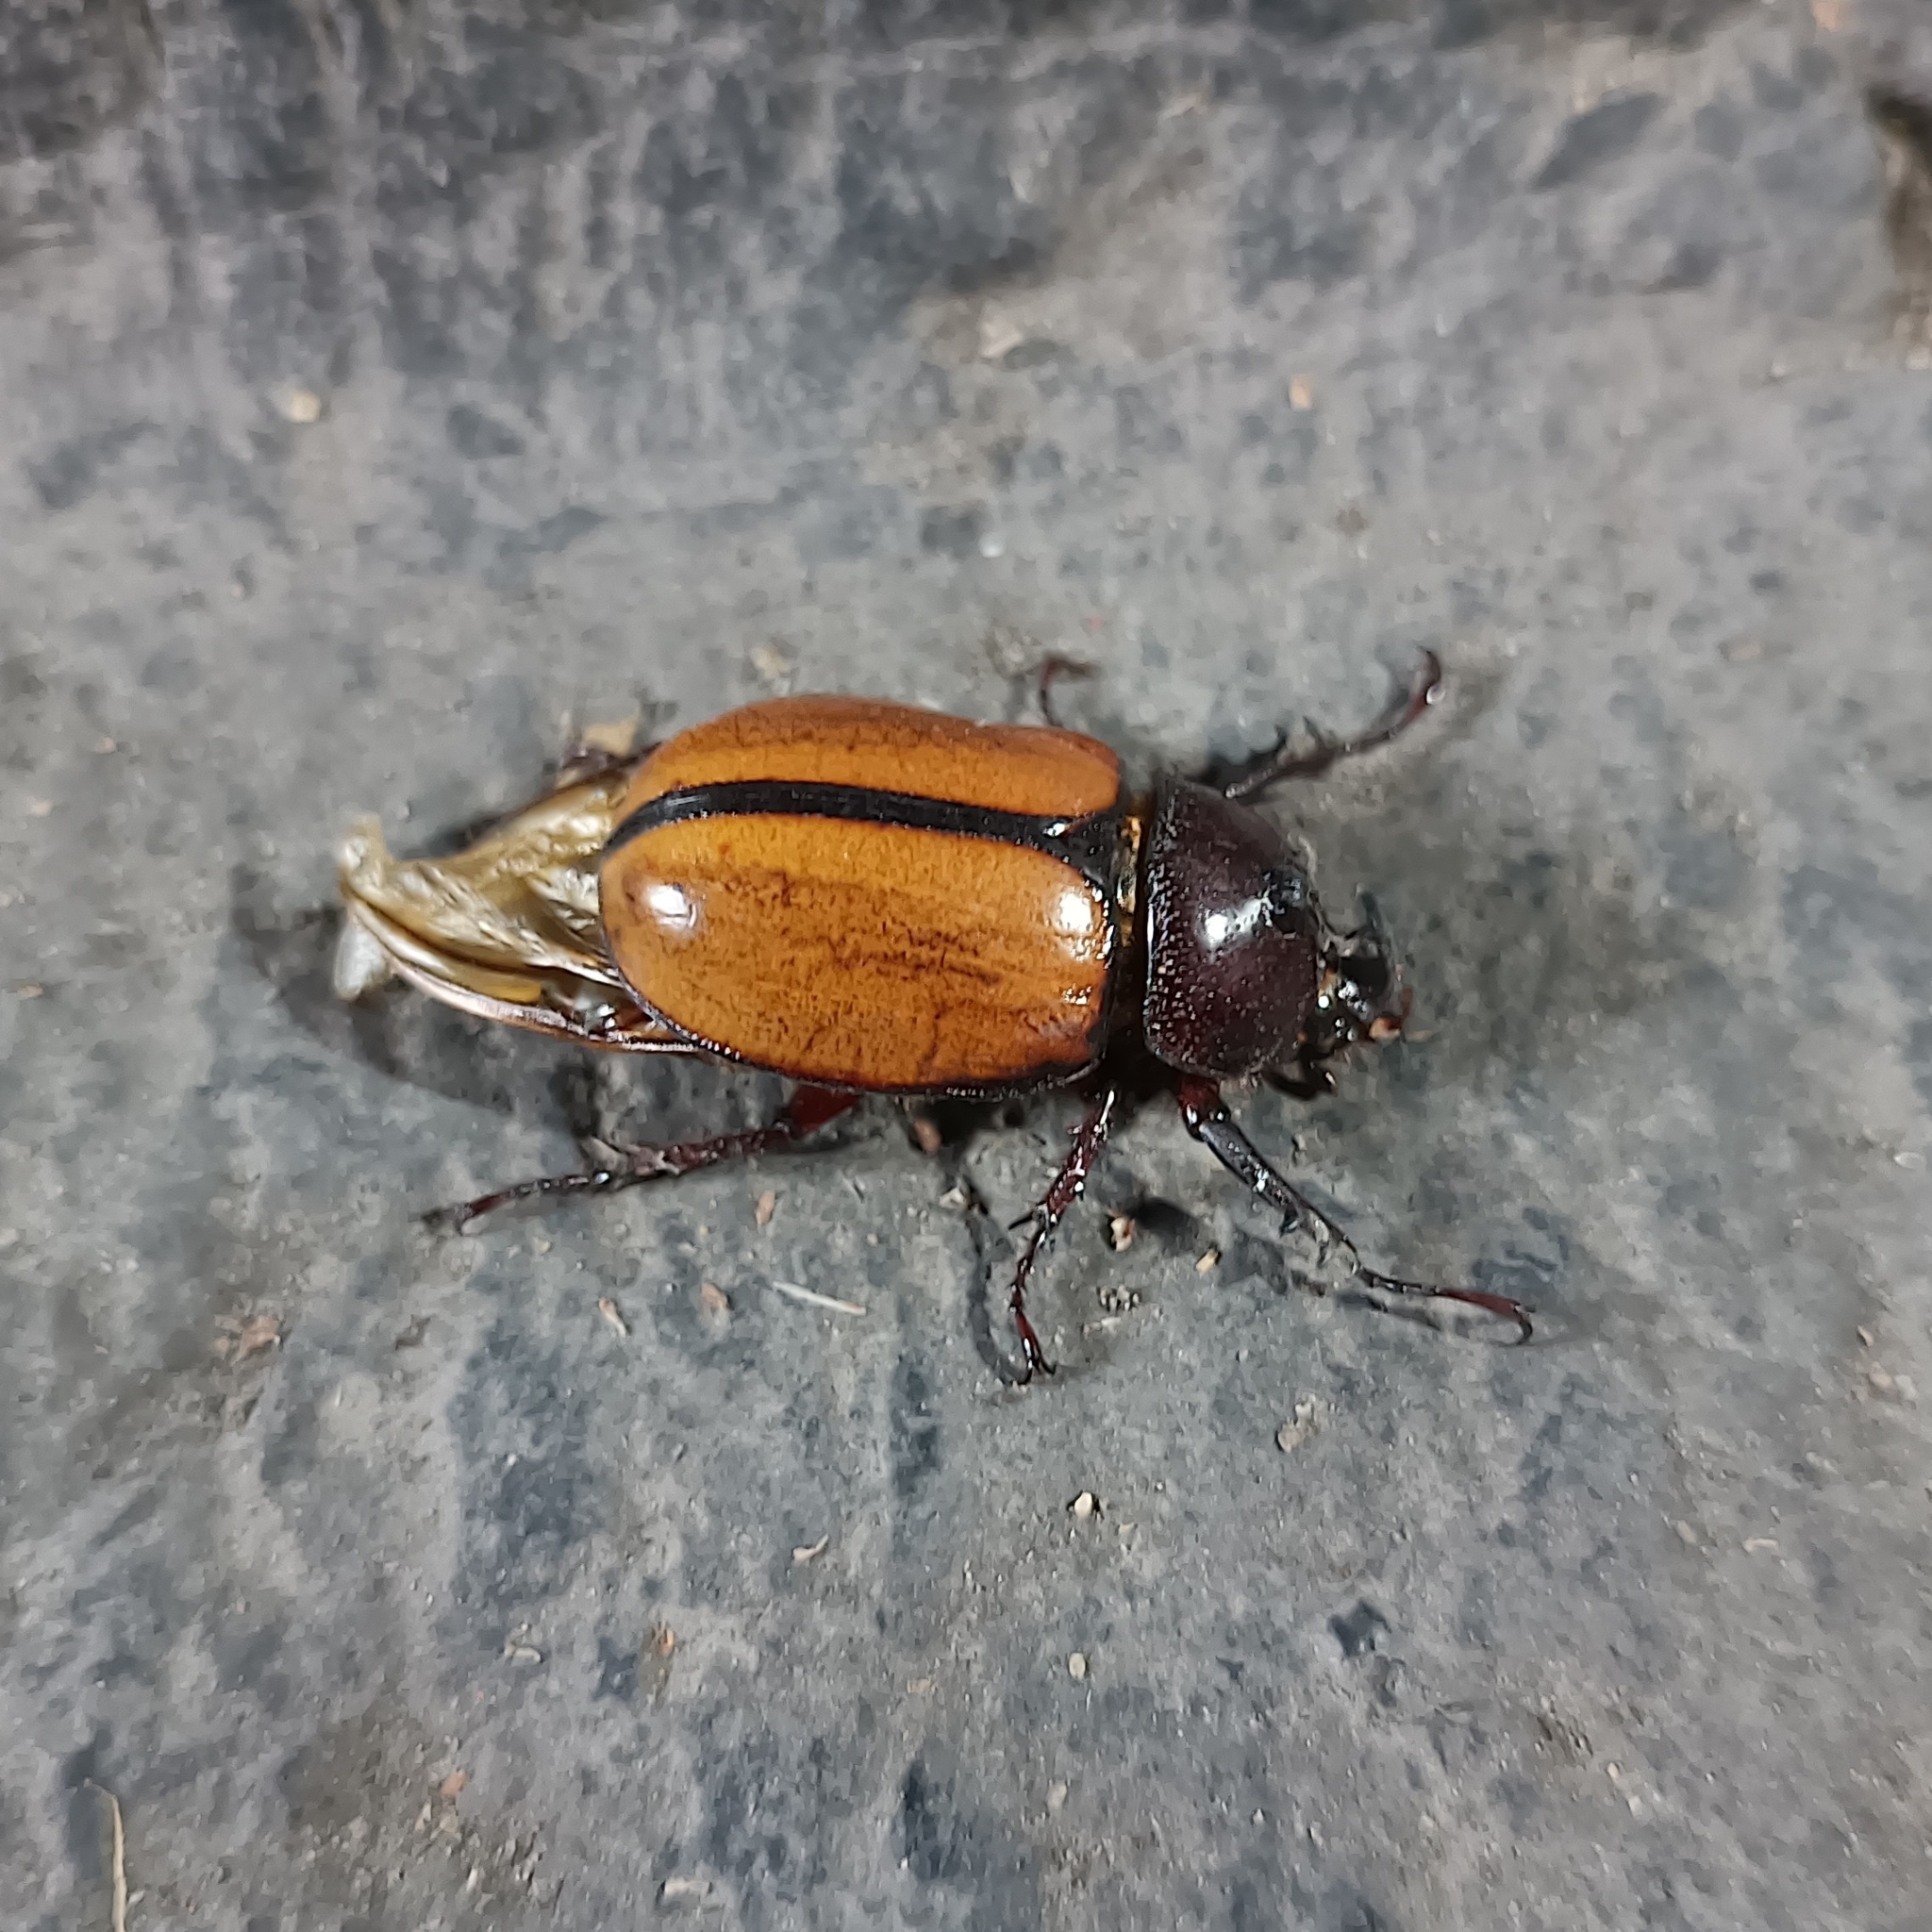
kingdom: Animalia
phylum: Arthropoda
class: Insecta
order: Coleoptera
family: Scarabaeidae
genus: Golofa
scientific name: Golofa pusilla
